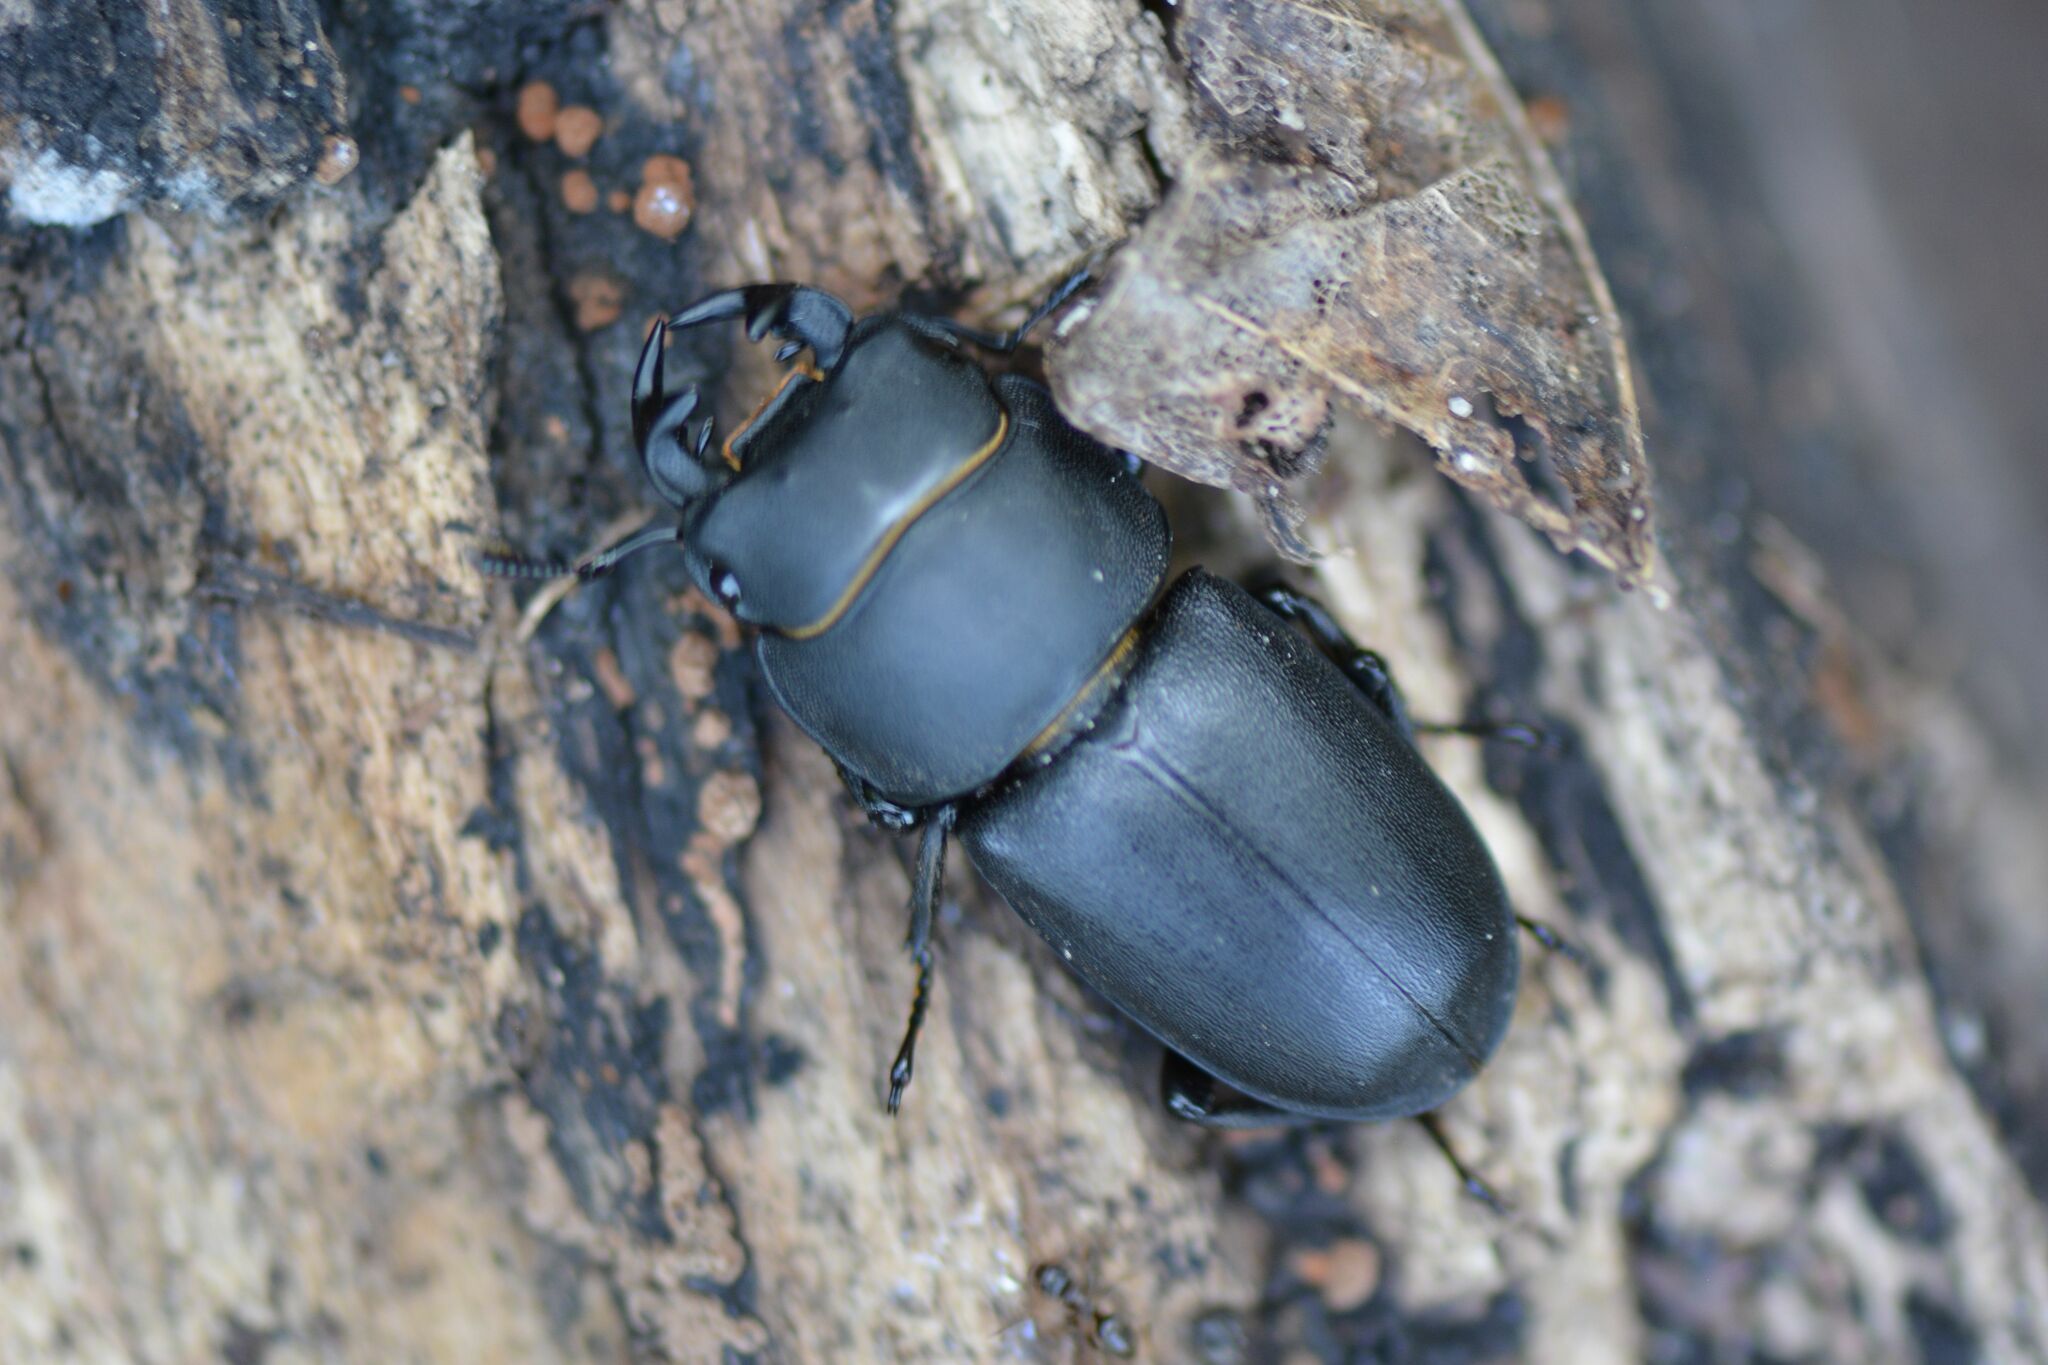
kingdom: Animalia
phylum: Arthropoda
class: Insecta
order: Coleoptera
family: Lucanidae
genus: Dorcus
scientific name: Dorcus parallelipipedus
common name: Lesser stag beetle
